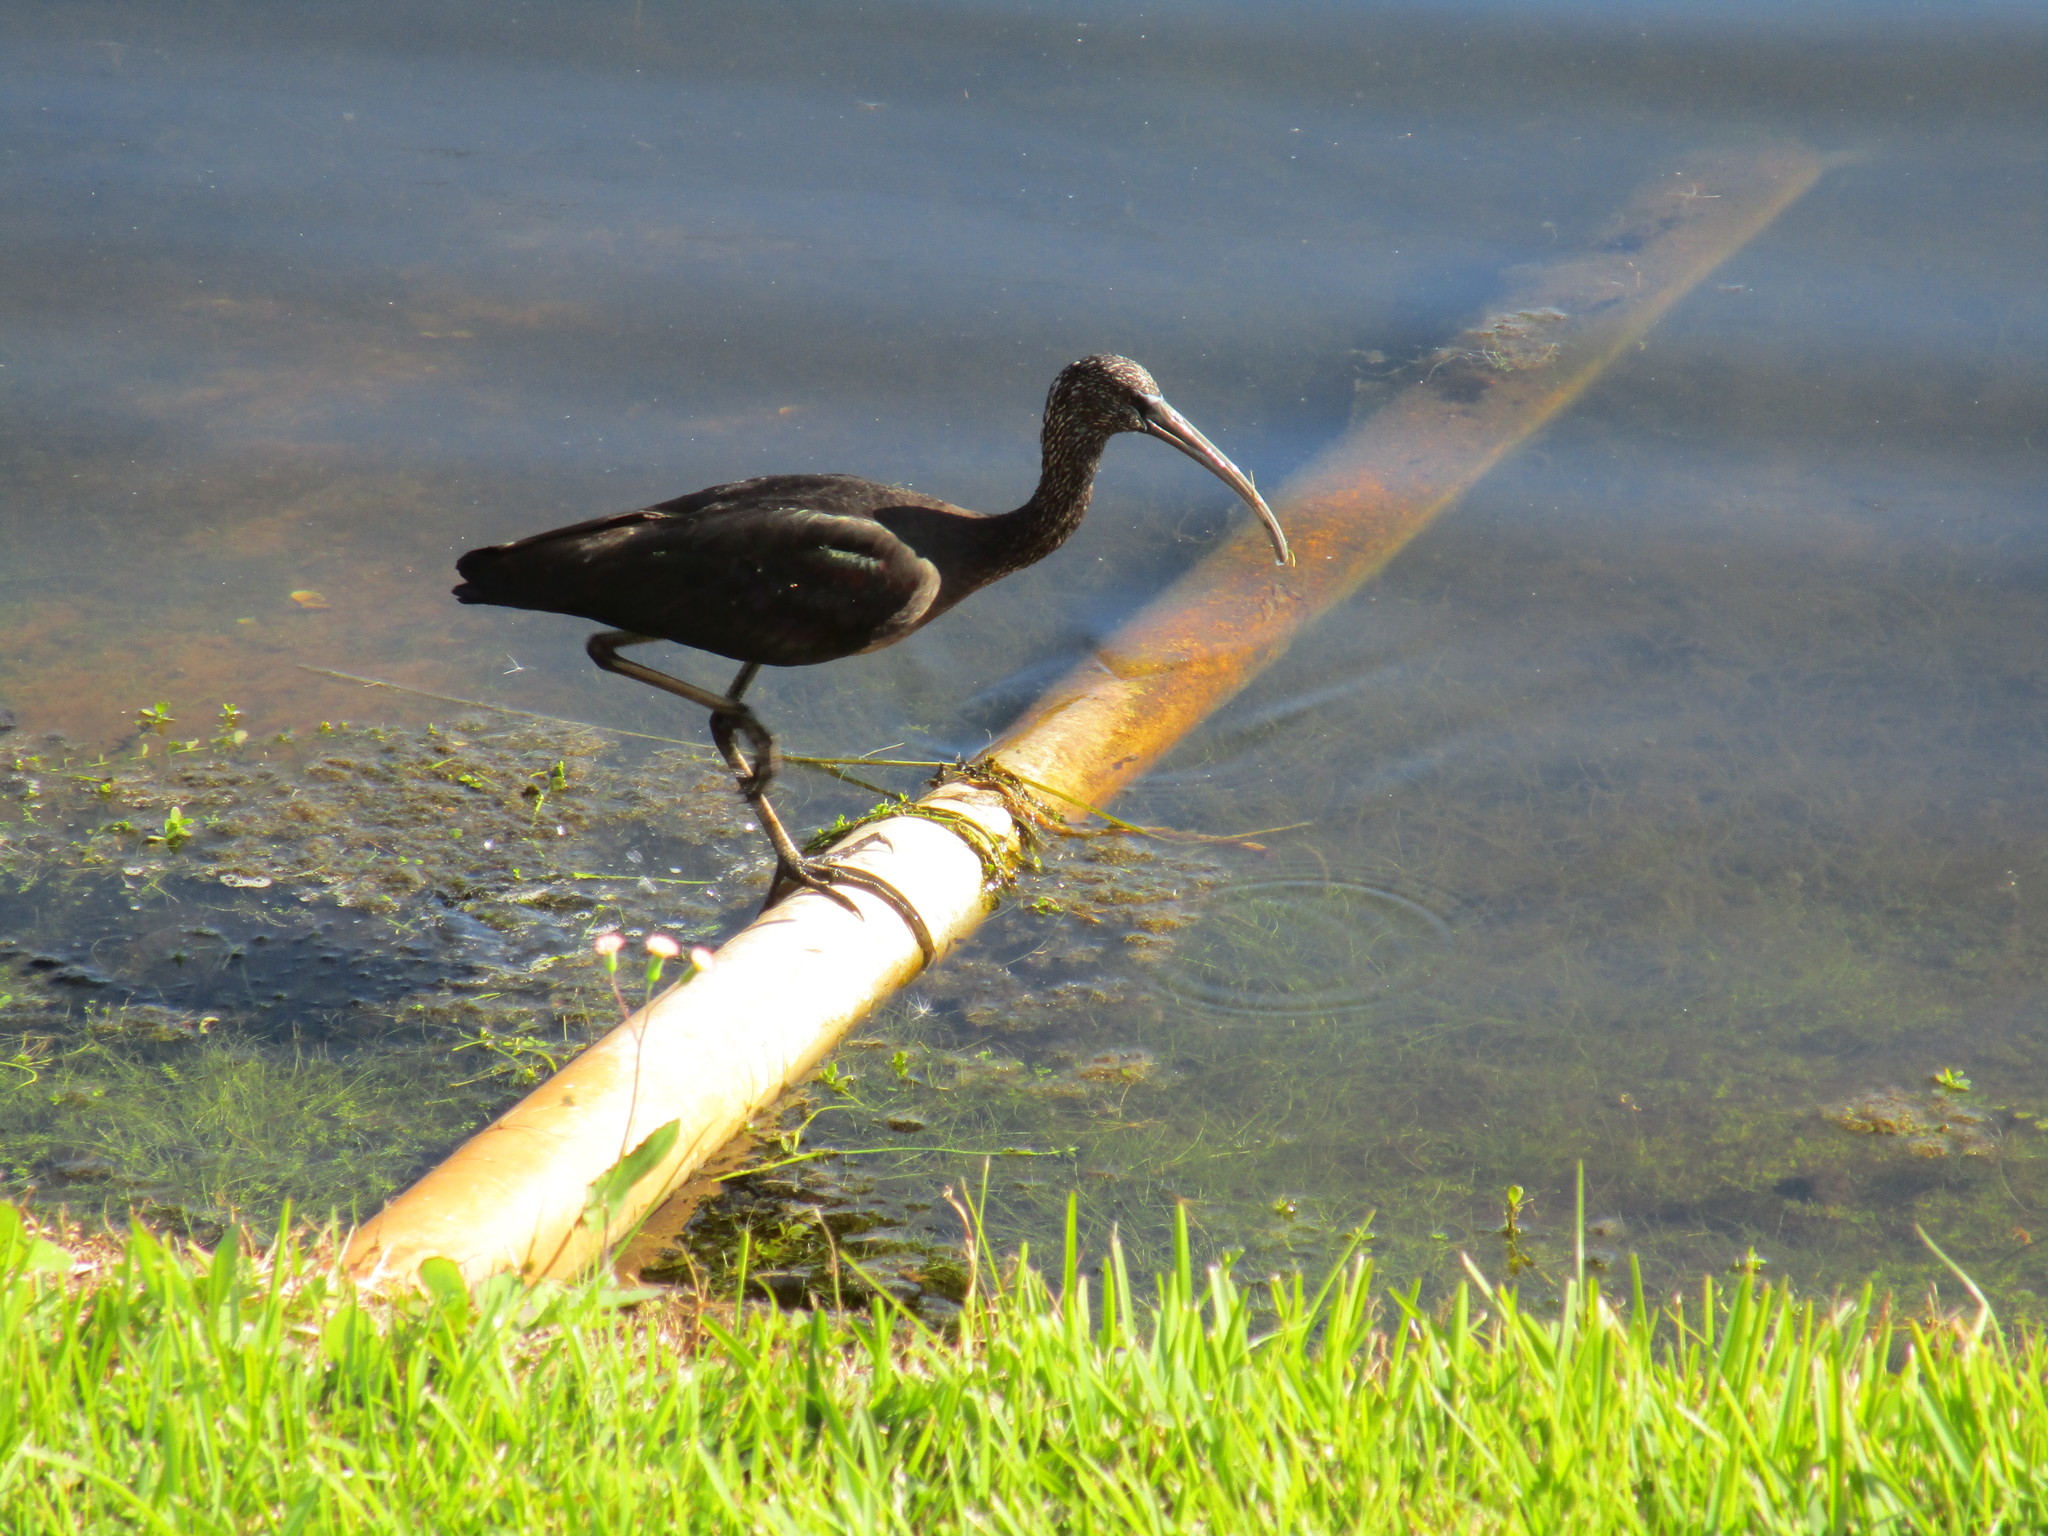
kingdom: Animalia
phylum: Chordata
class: Aves
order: Pelecaniformes
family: Threskiornithidae
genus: Plegadis
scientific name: Plegadis falcinellus
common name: Glossy ibis
